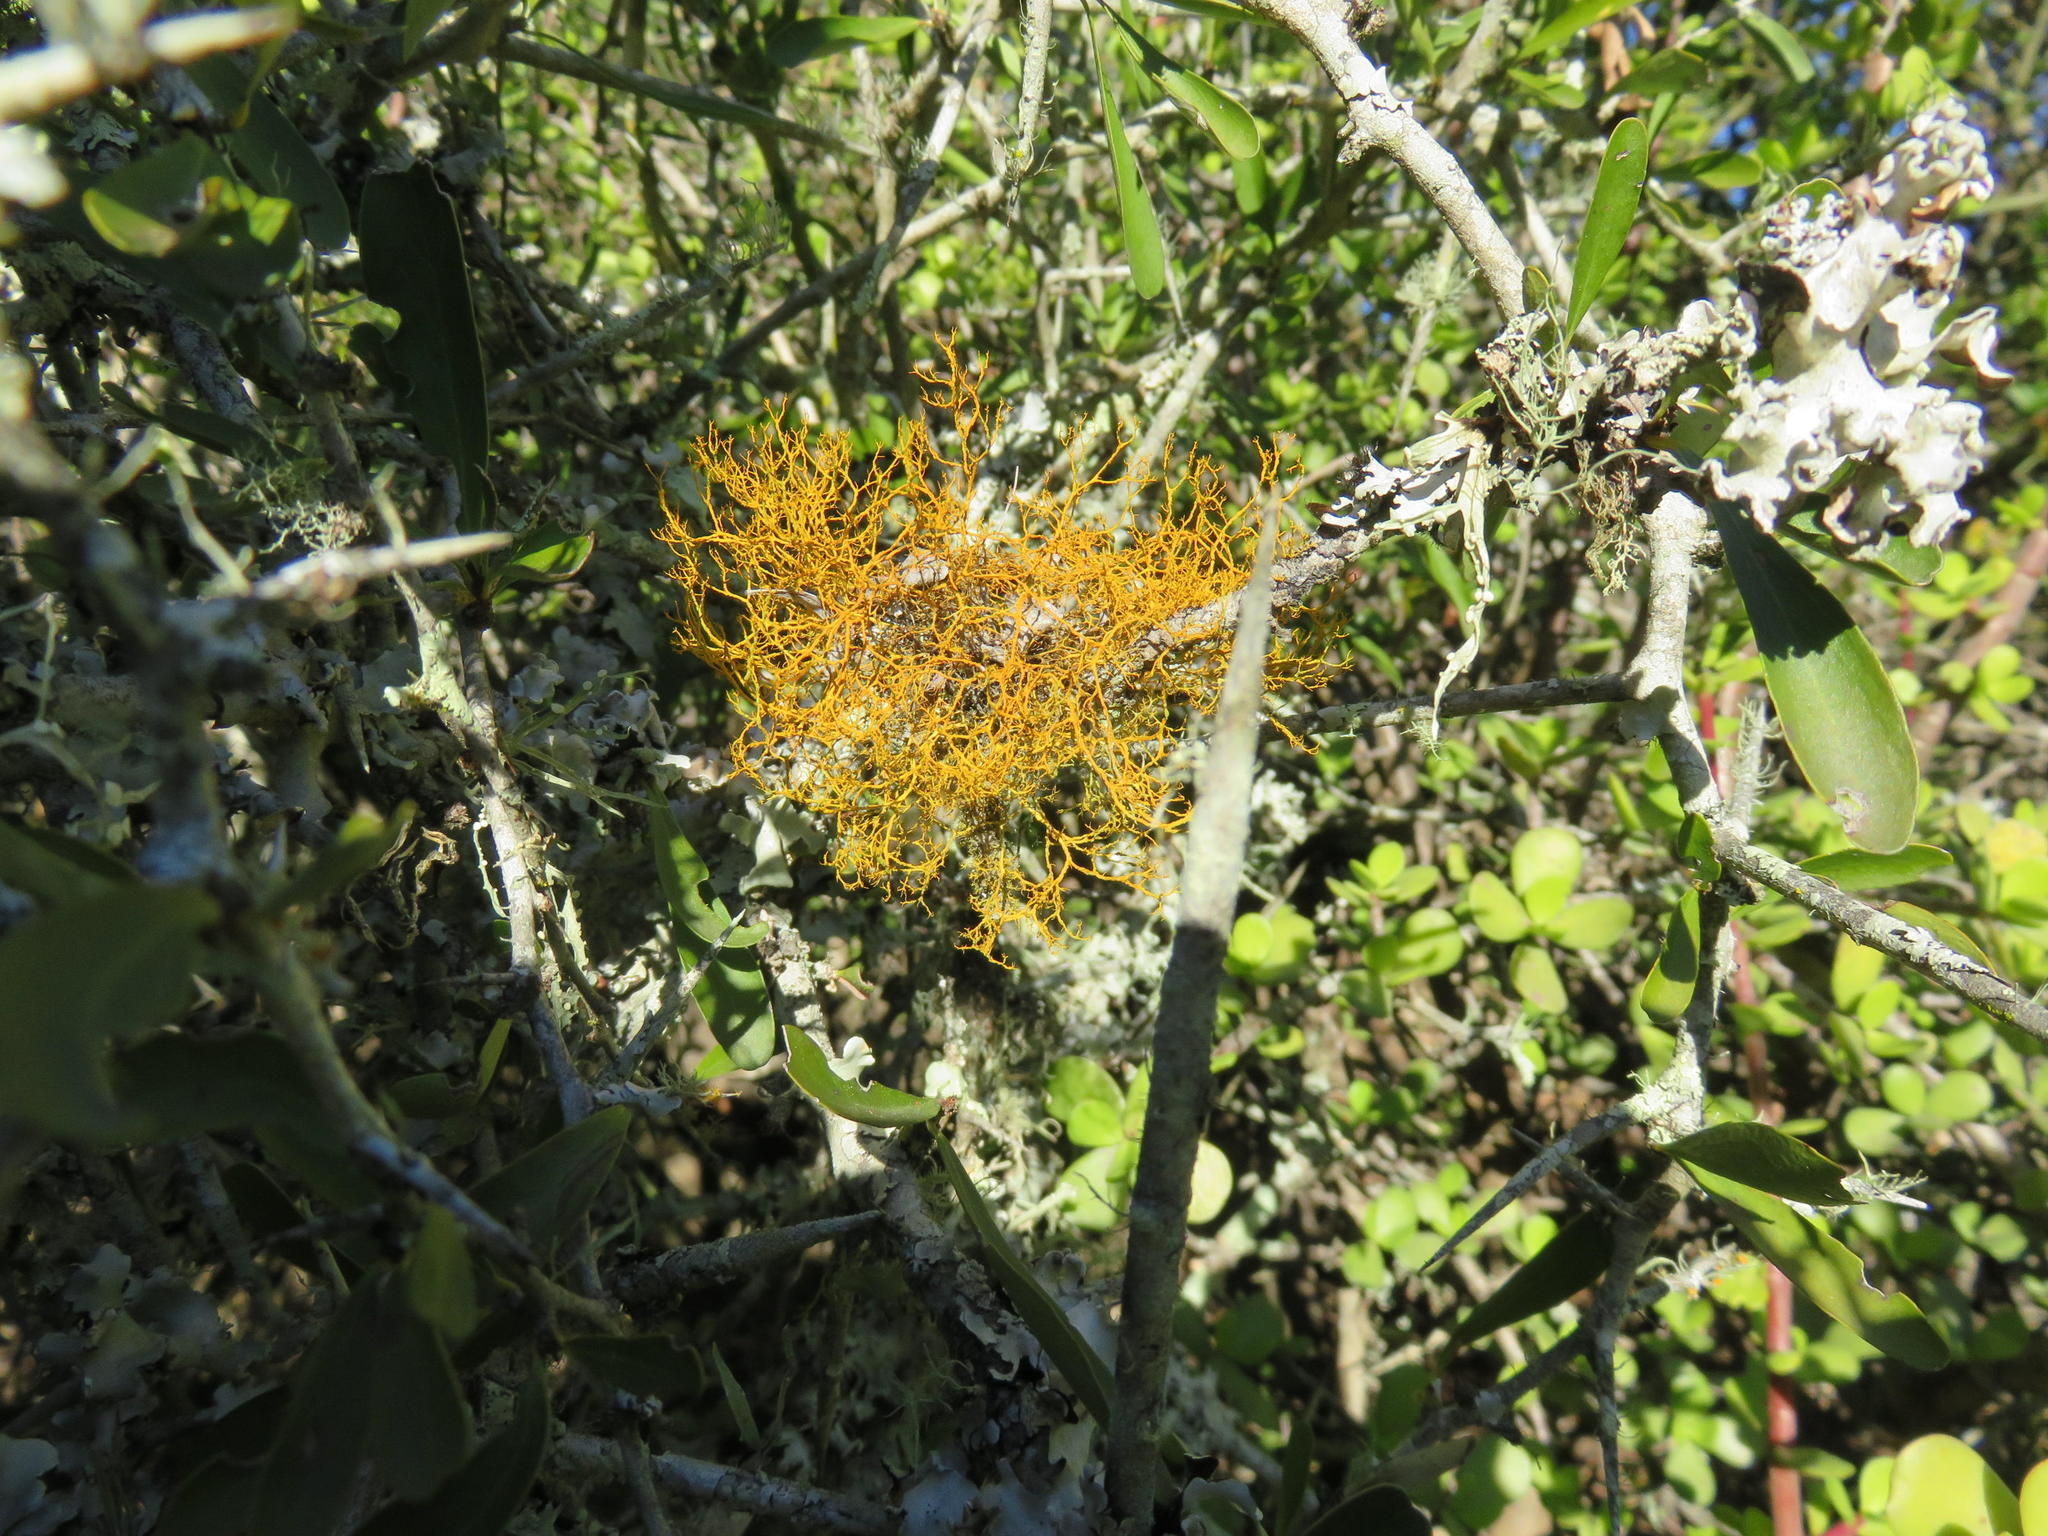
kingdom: Fungi
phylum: Ascomycota
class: Lecanoromycetes
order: Teloschistales
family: Teloschistaceae
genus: Teloschistes
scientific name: Teloschistes flavicans
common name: Golden hair-lichen
